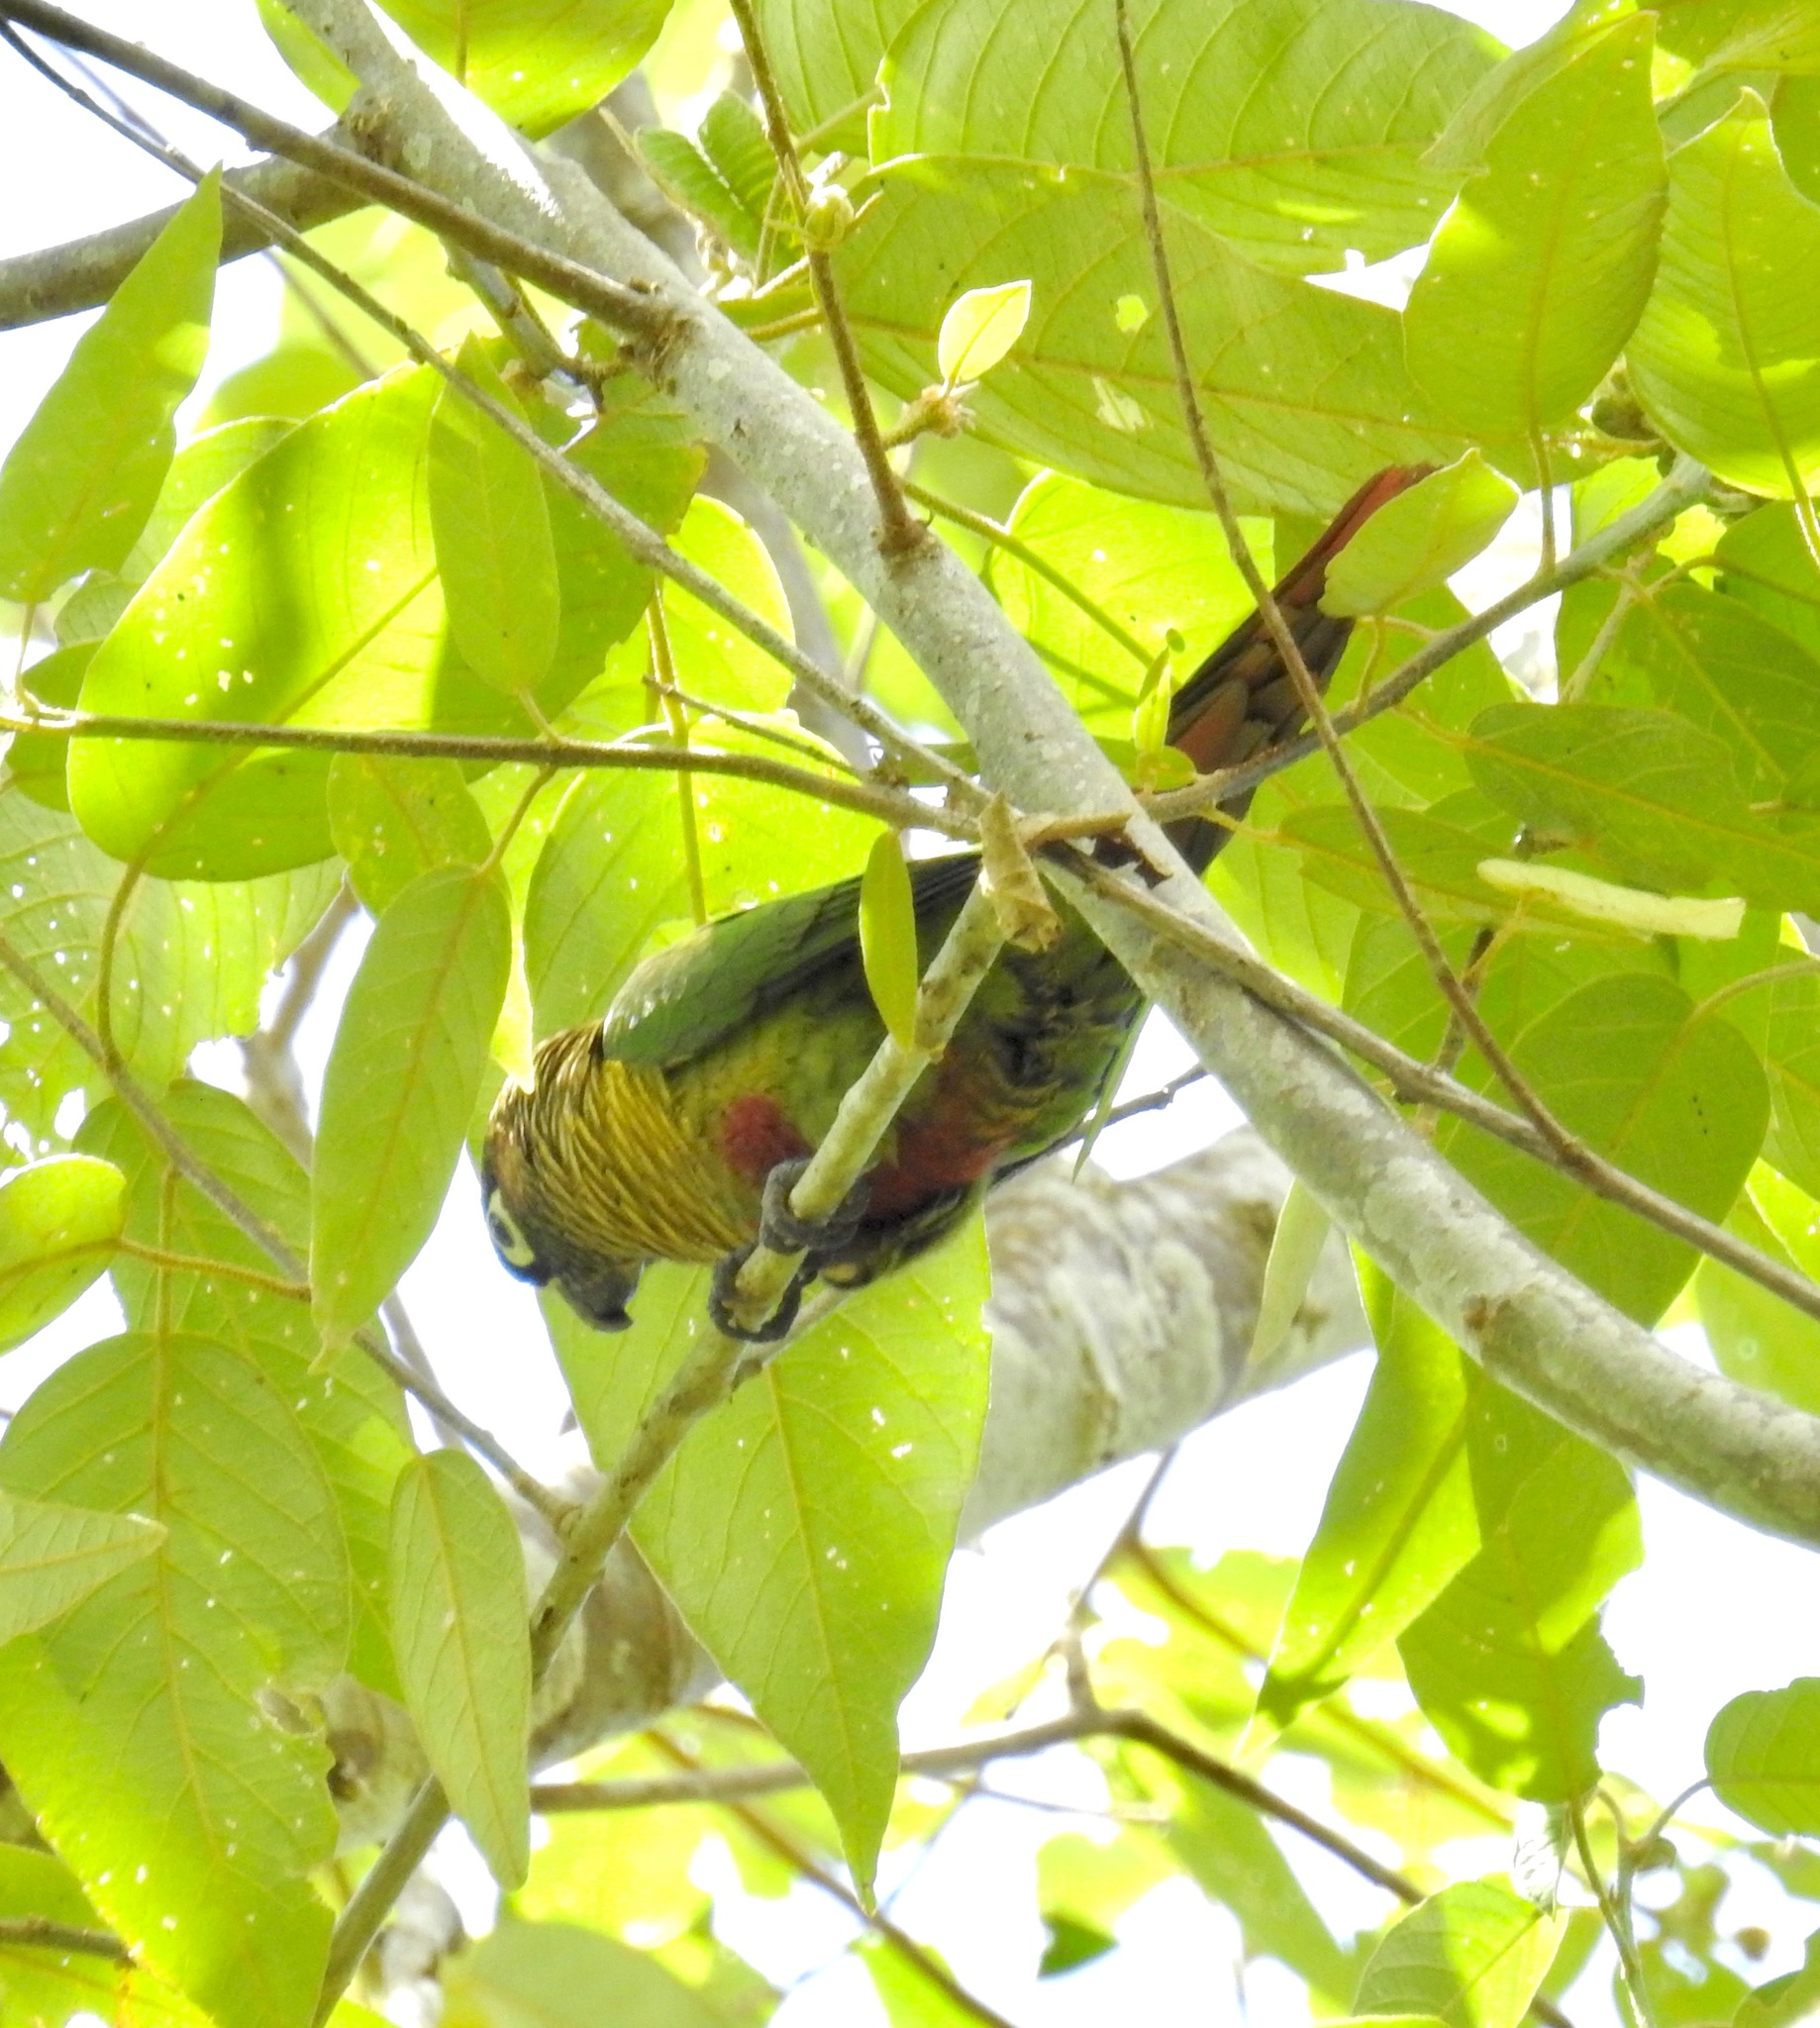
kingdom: Animalia
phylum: Chordata
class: Aves
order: Psittaciformes
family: Psittacidae
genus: Pyrrhura
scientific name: Pyrrhura frontalis
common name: Maroon-bellied parakeet
